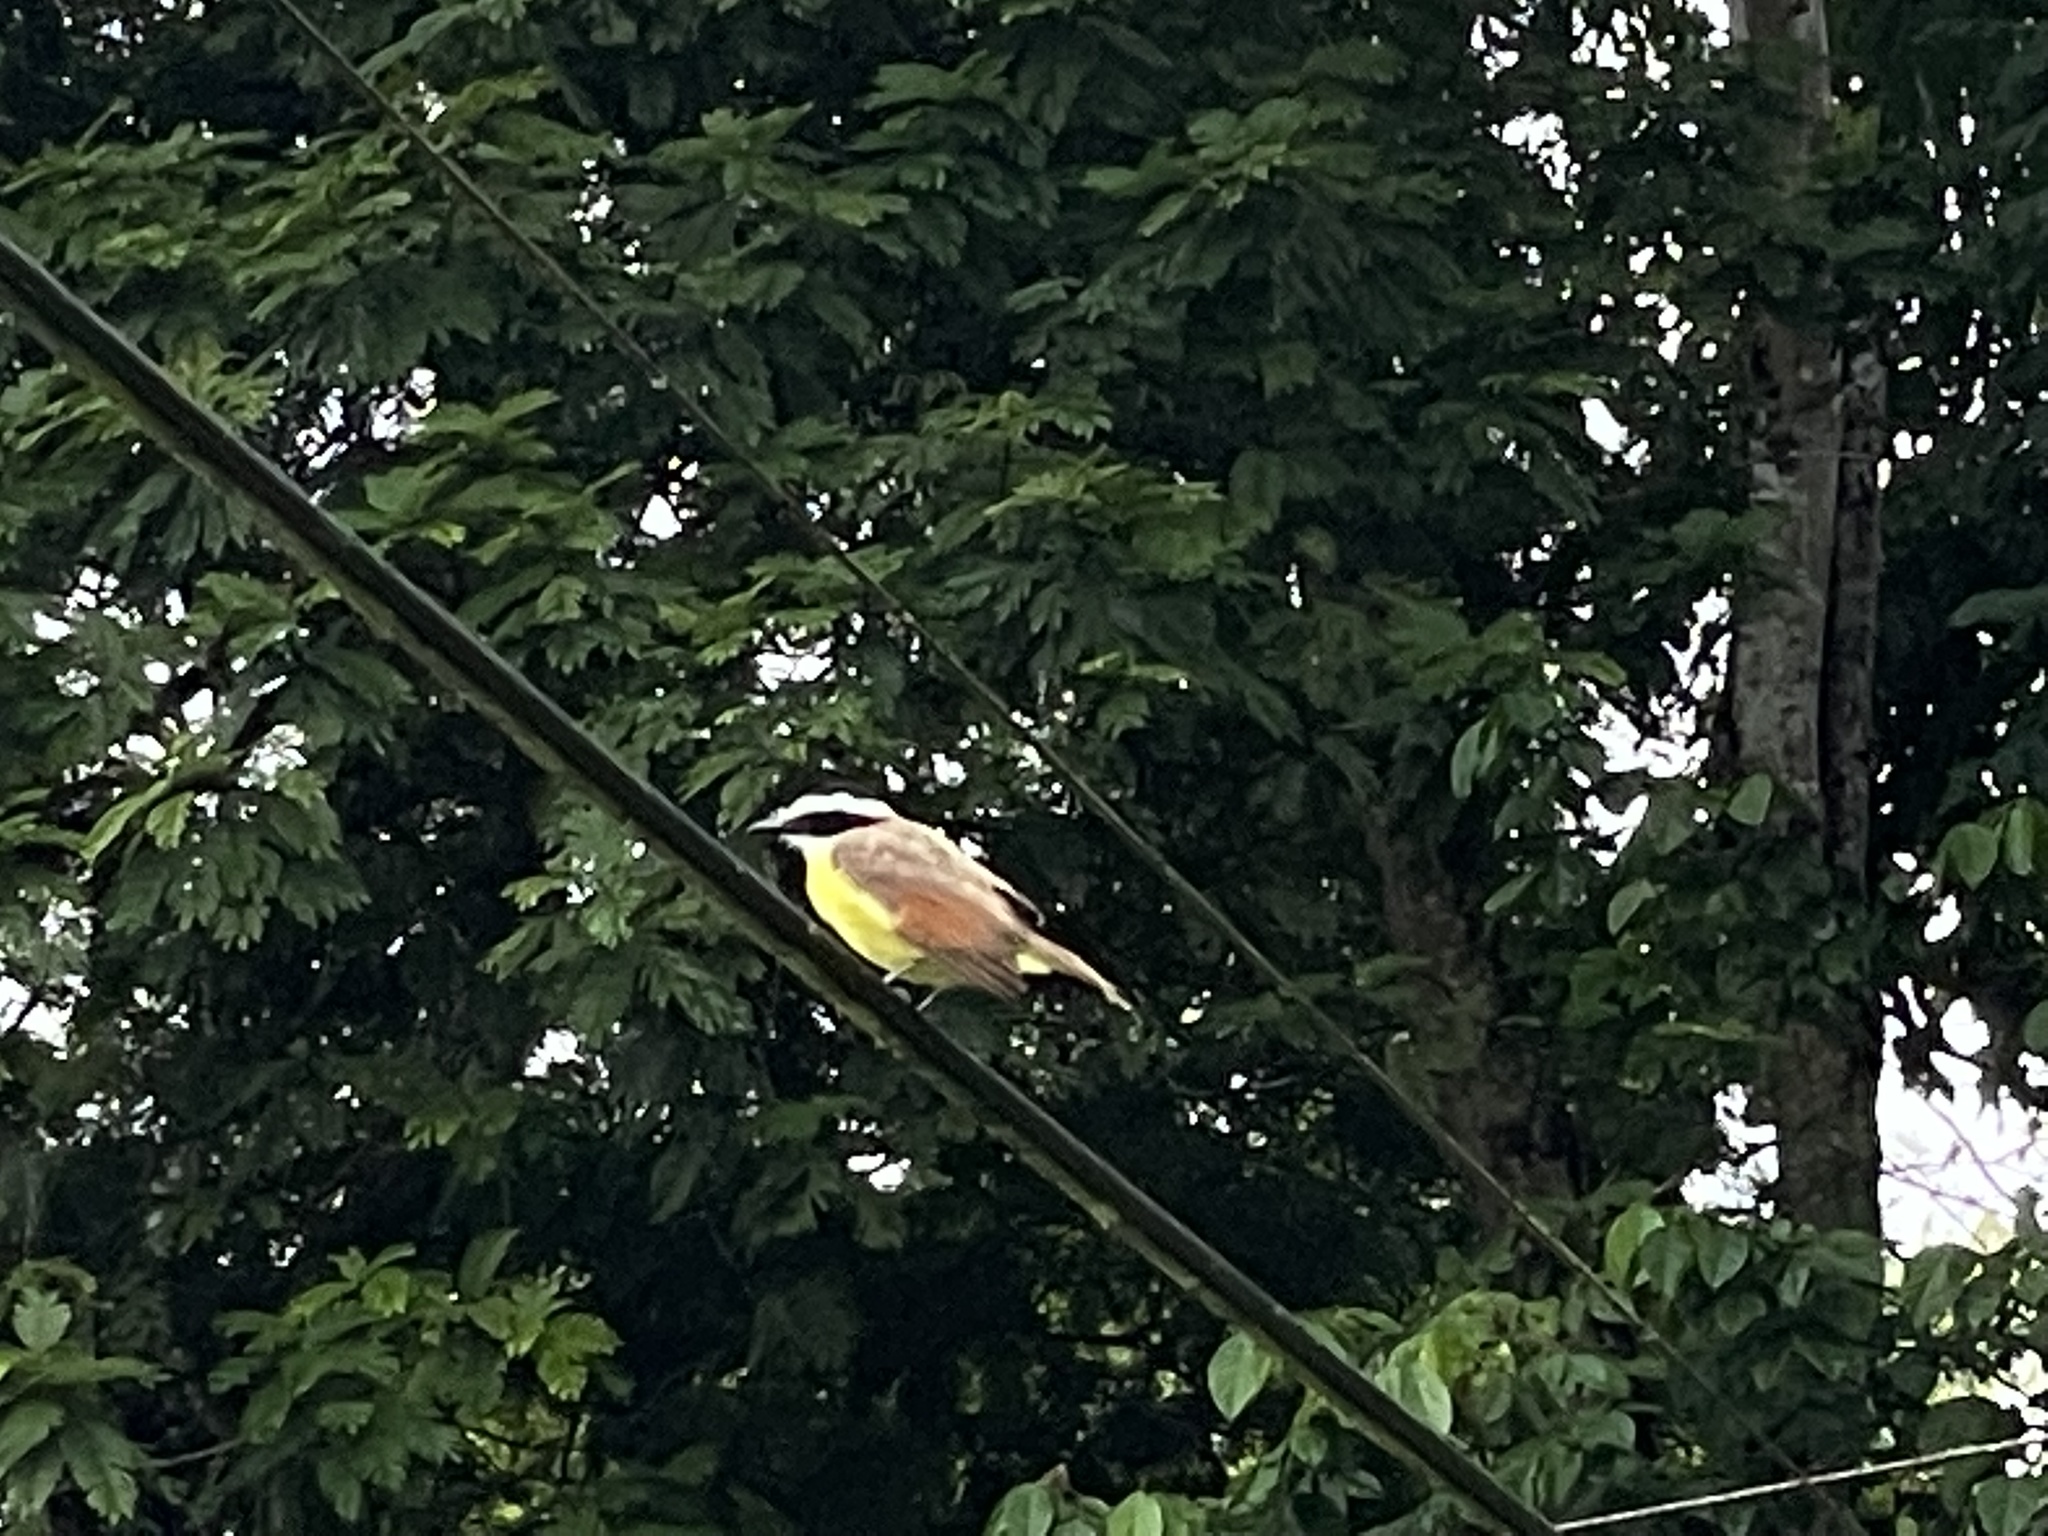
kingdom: Animalia
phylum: Chordata
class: Aves
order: Passeriformes
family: Tyrannidae
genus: Pitangus
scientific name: Pitangus sulphuratus
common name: Great kiskadee
